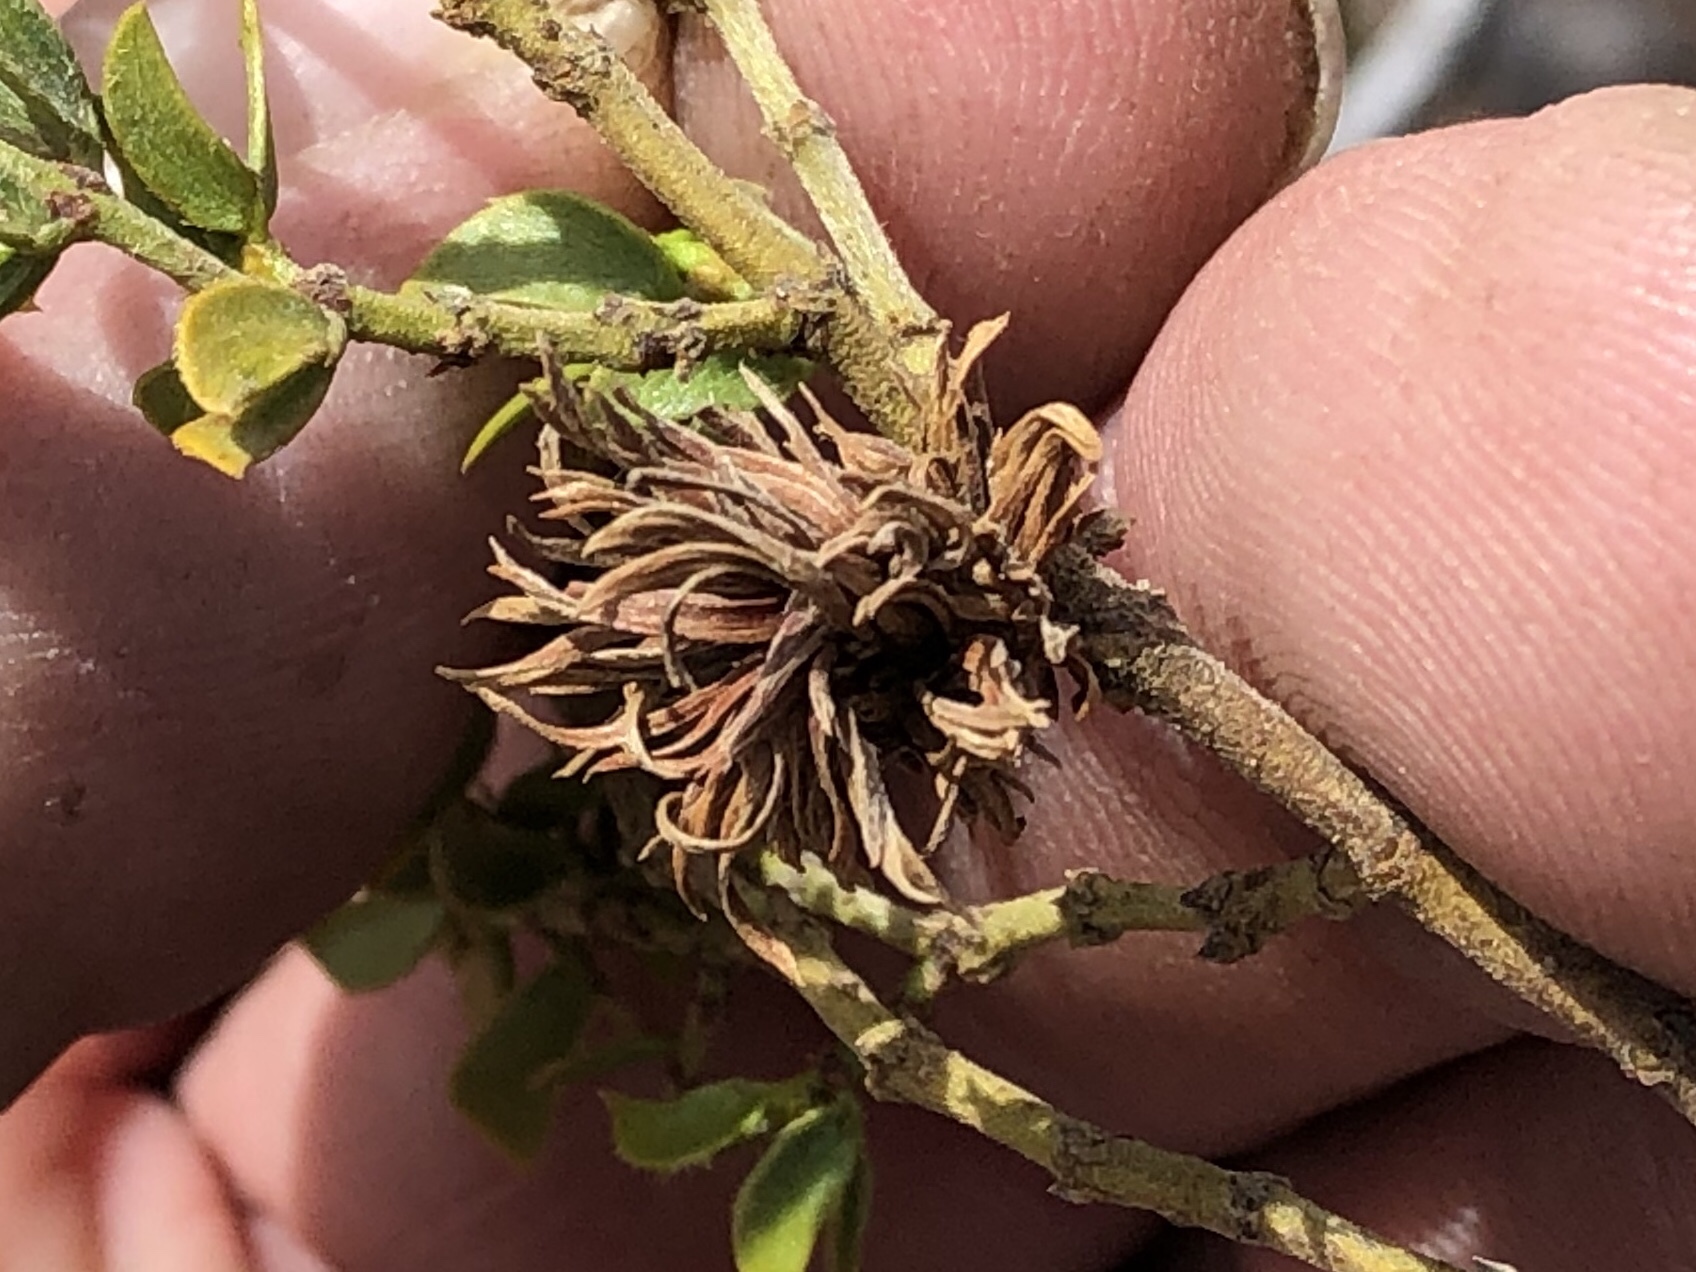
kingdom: Animalia
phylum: Arthropoda
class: Insecta
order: Diptera
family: Cecidomyiidae
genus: Asphondylia
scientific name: Asphondylia auripila
